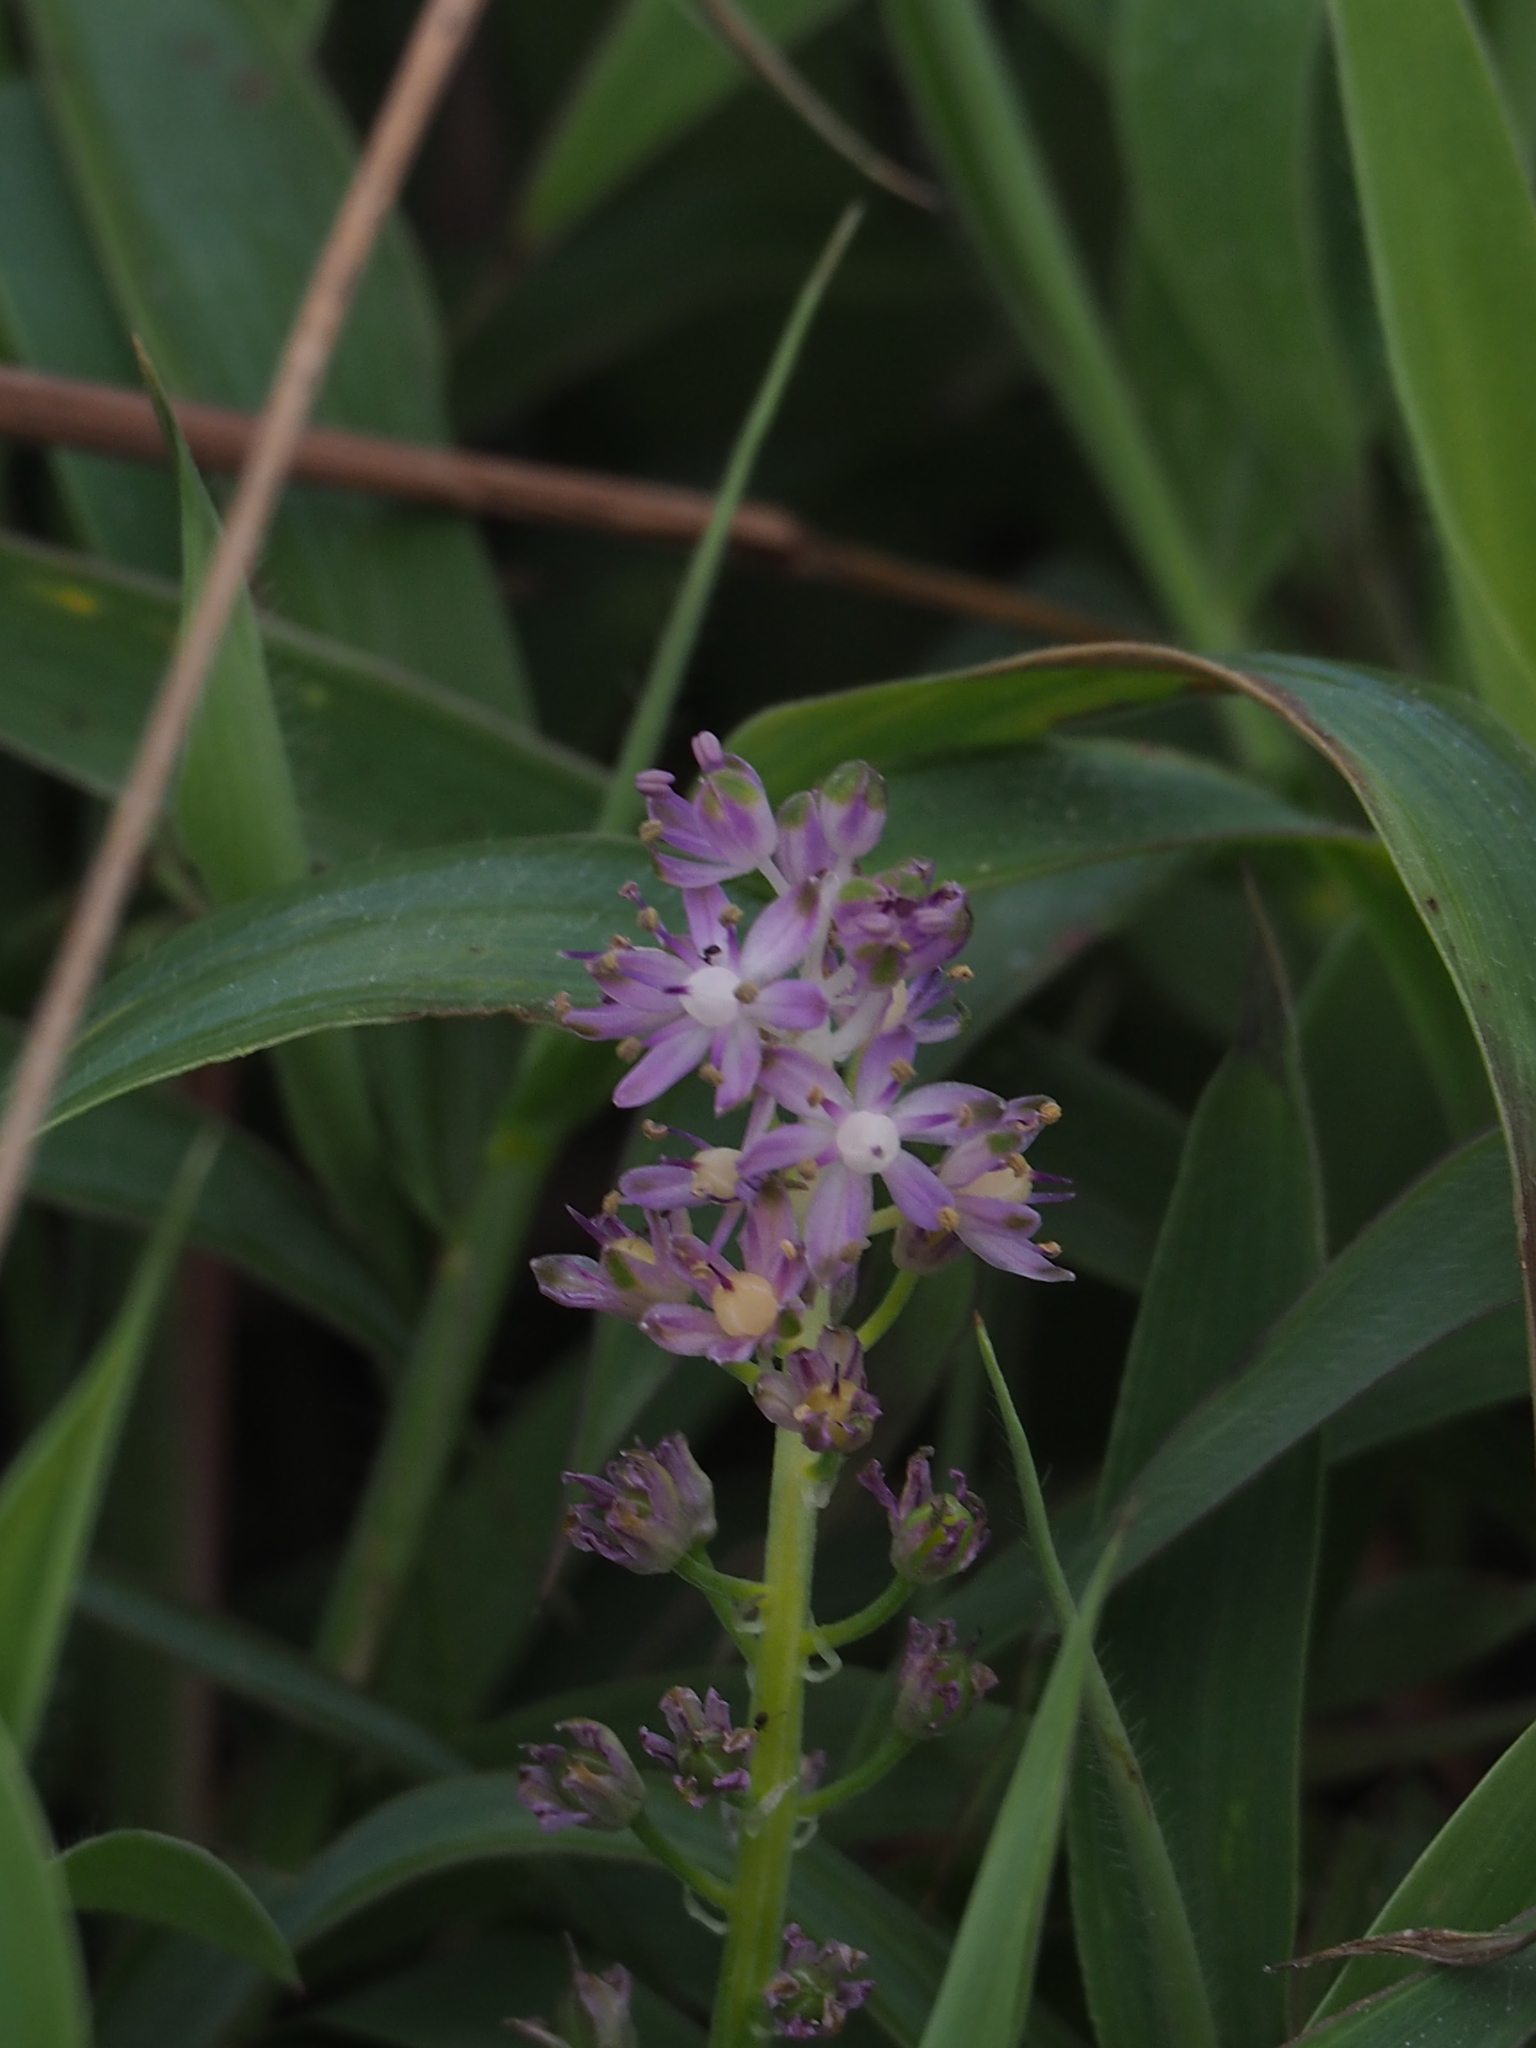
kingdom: Plantae
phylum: Tracheophyta
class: Liliopsida
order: Asparagales
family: Asparagaceae
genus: Barnardia
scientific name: Barnardia japonica
